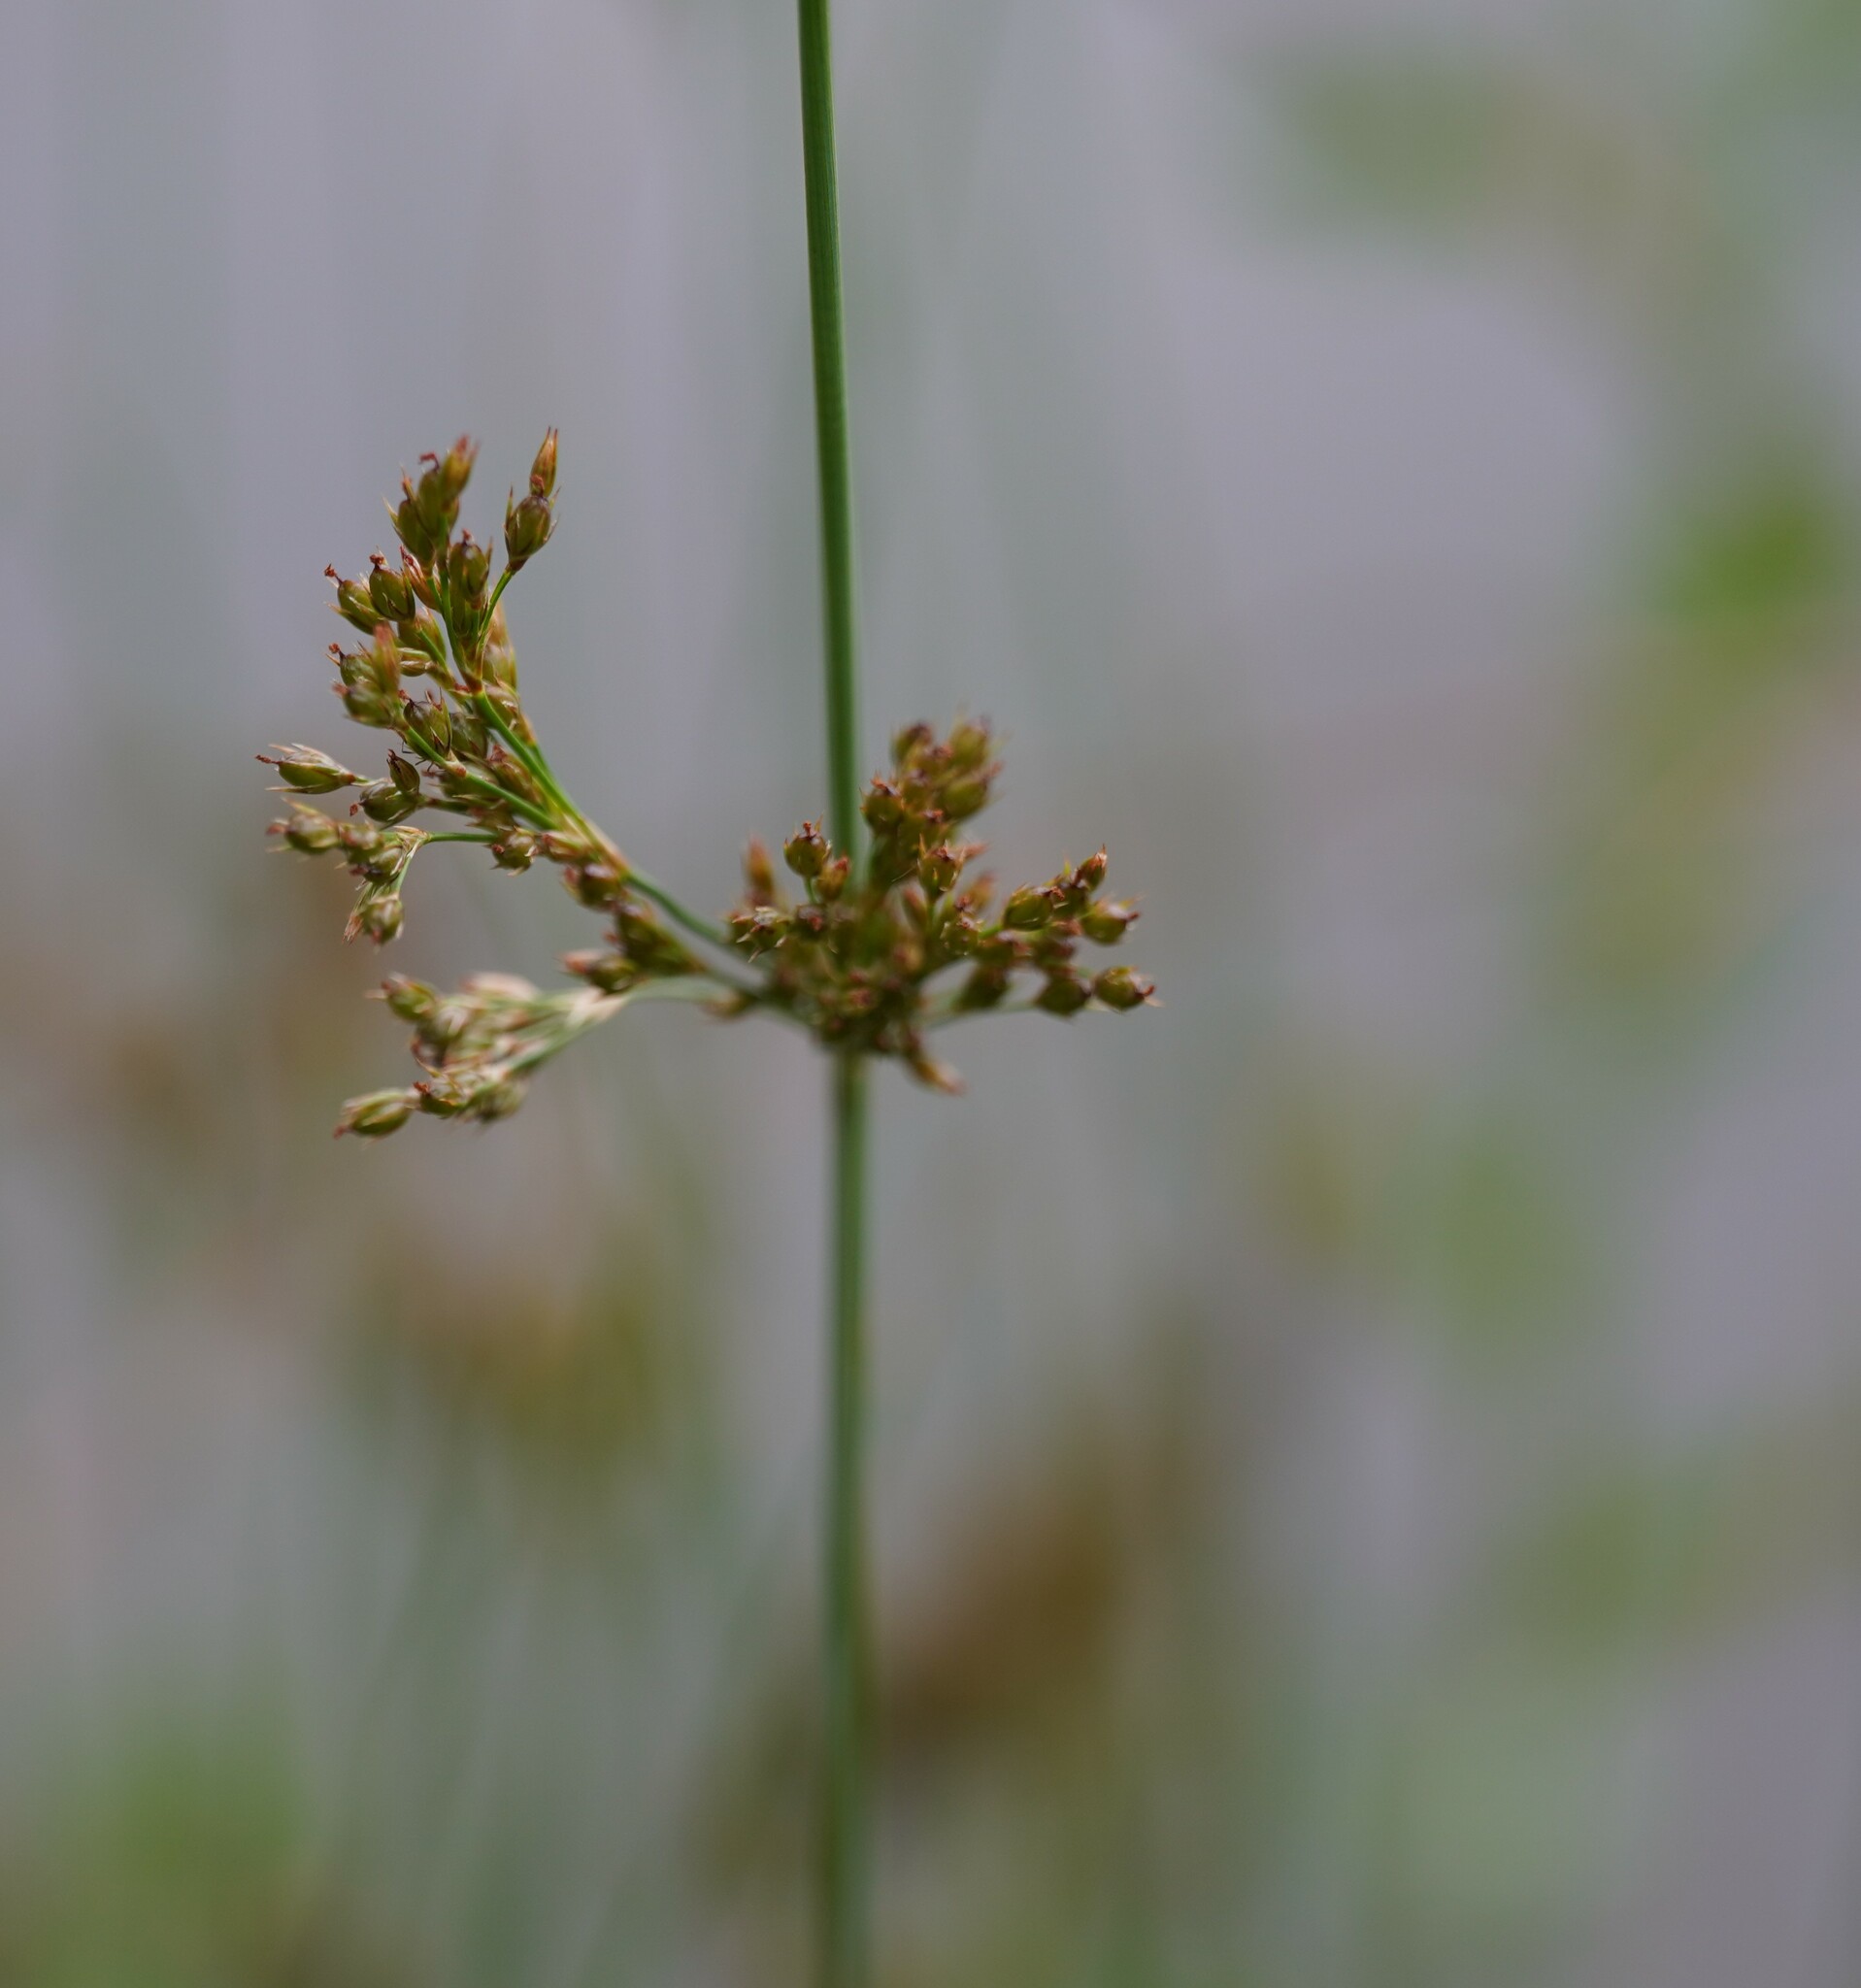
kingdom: Plantae
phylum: Tracheophyta
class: Liliopsida
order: Poales
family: Juncaceae
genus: Juncus
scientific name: Juncus inflexus
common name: Hard rush
